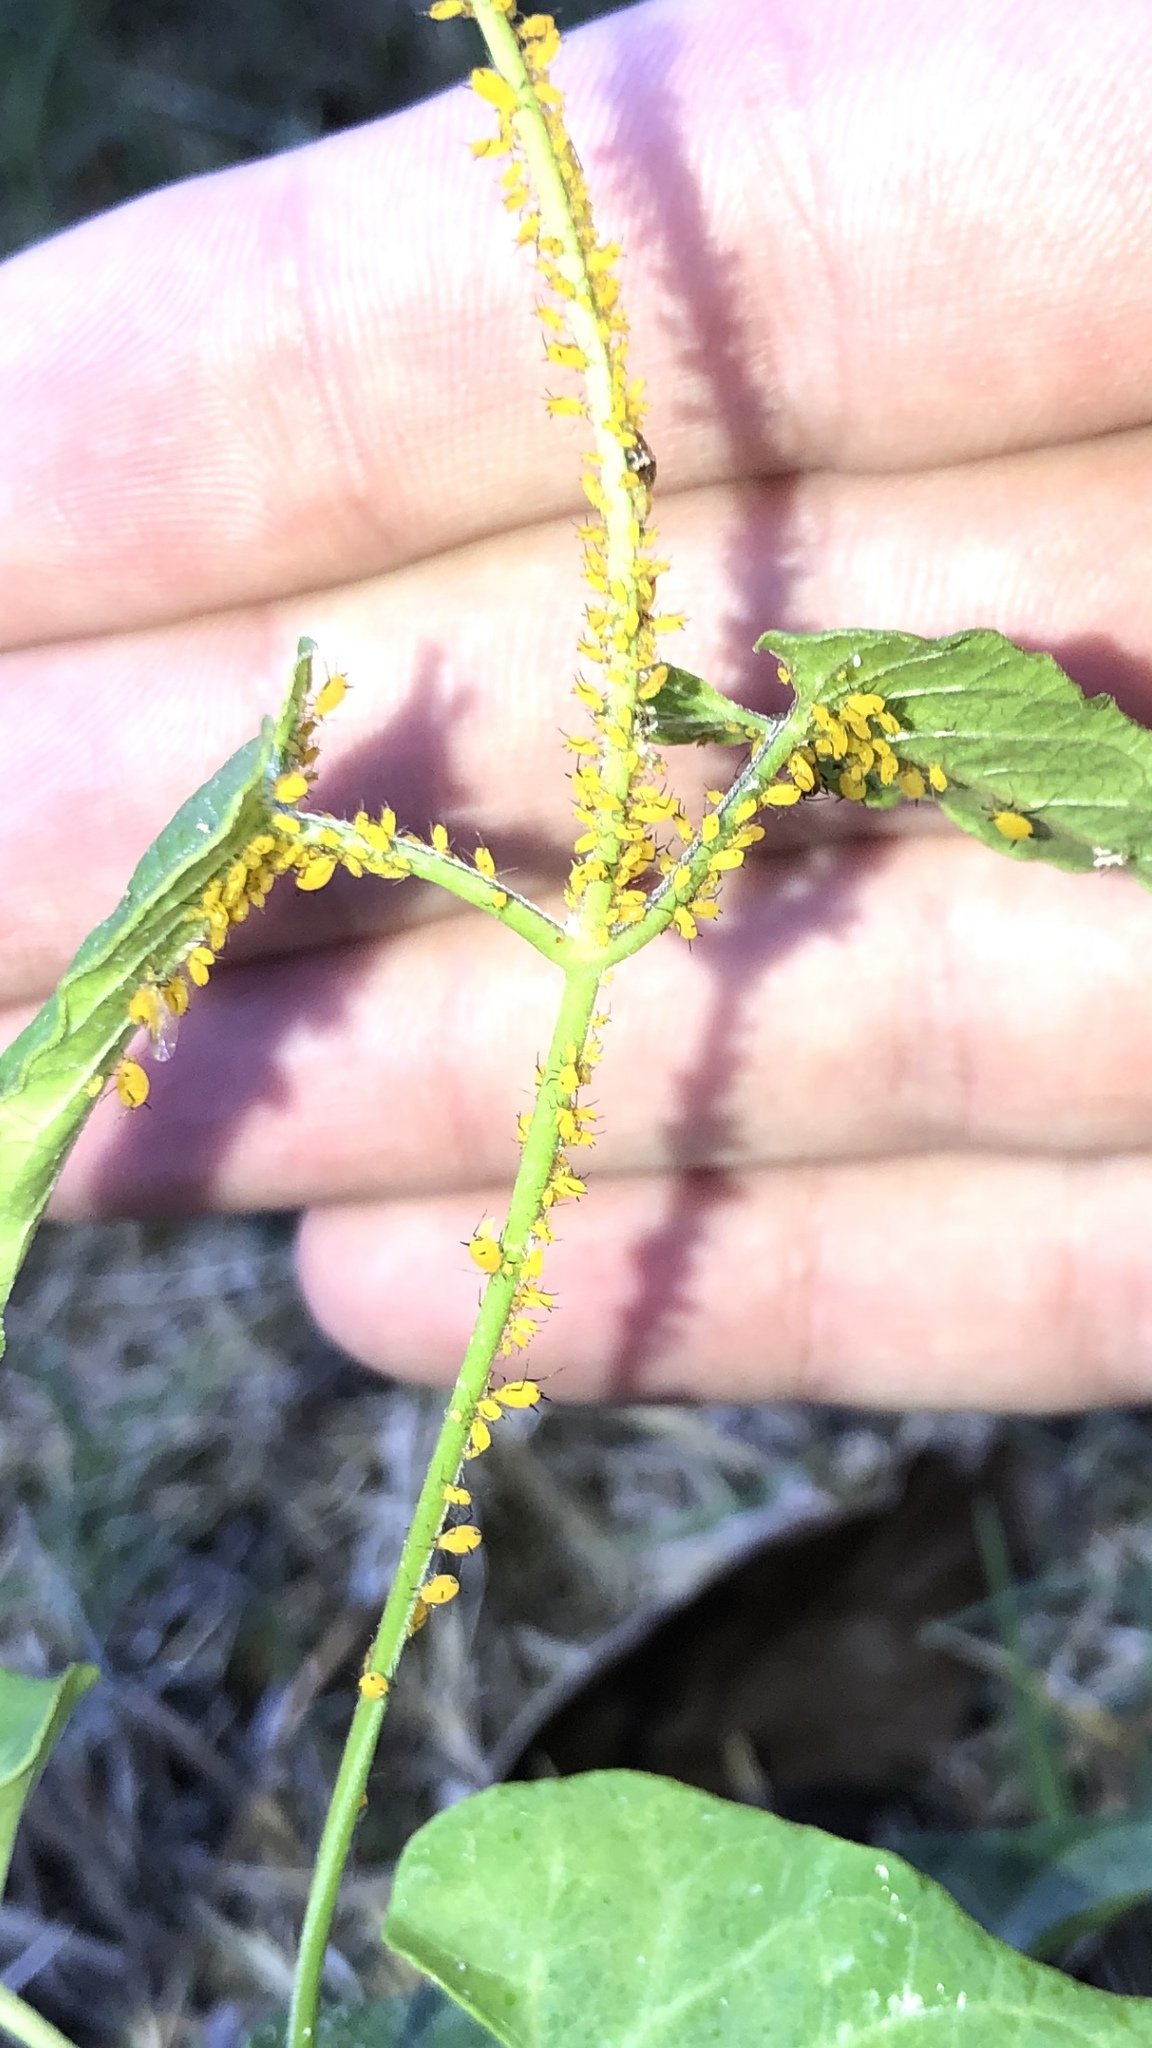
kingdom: Animalia
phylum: Arthropoda
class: Insecta
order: Hemiptera
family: Aphididae
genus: Aphis
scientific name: Aphis nerii
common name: Oleander aphid
